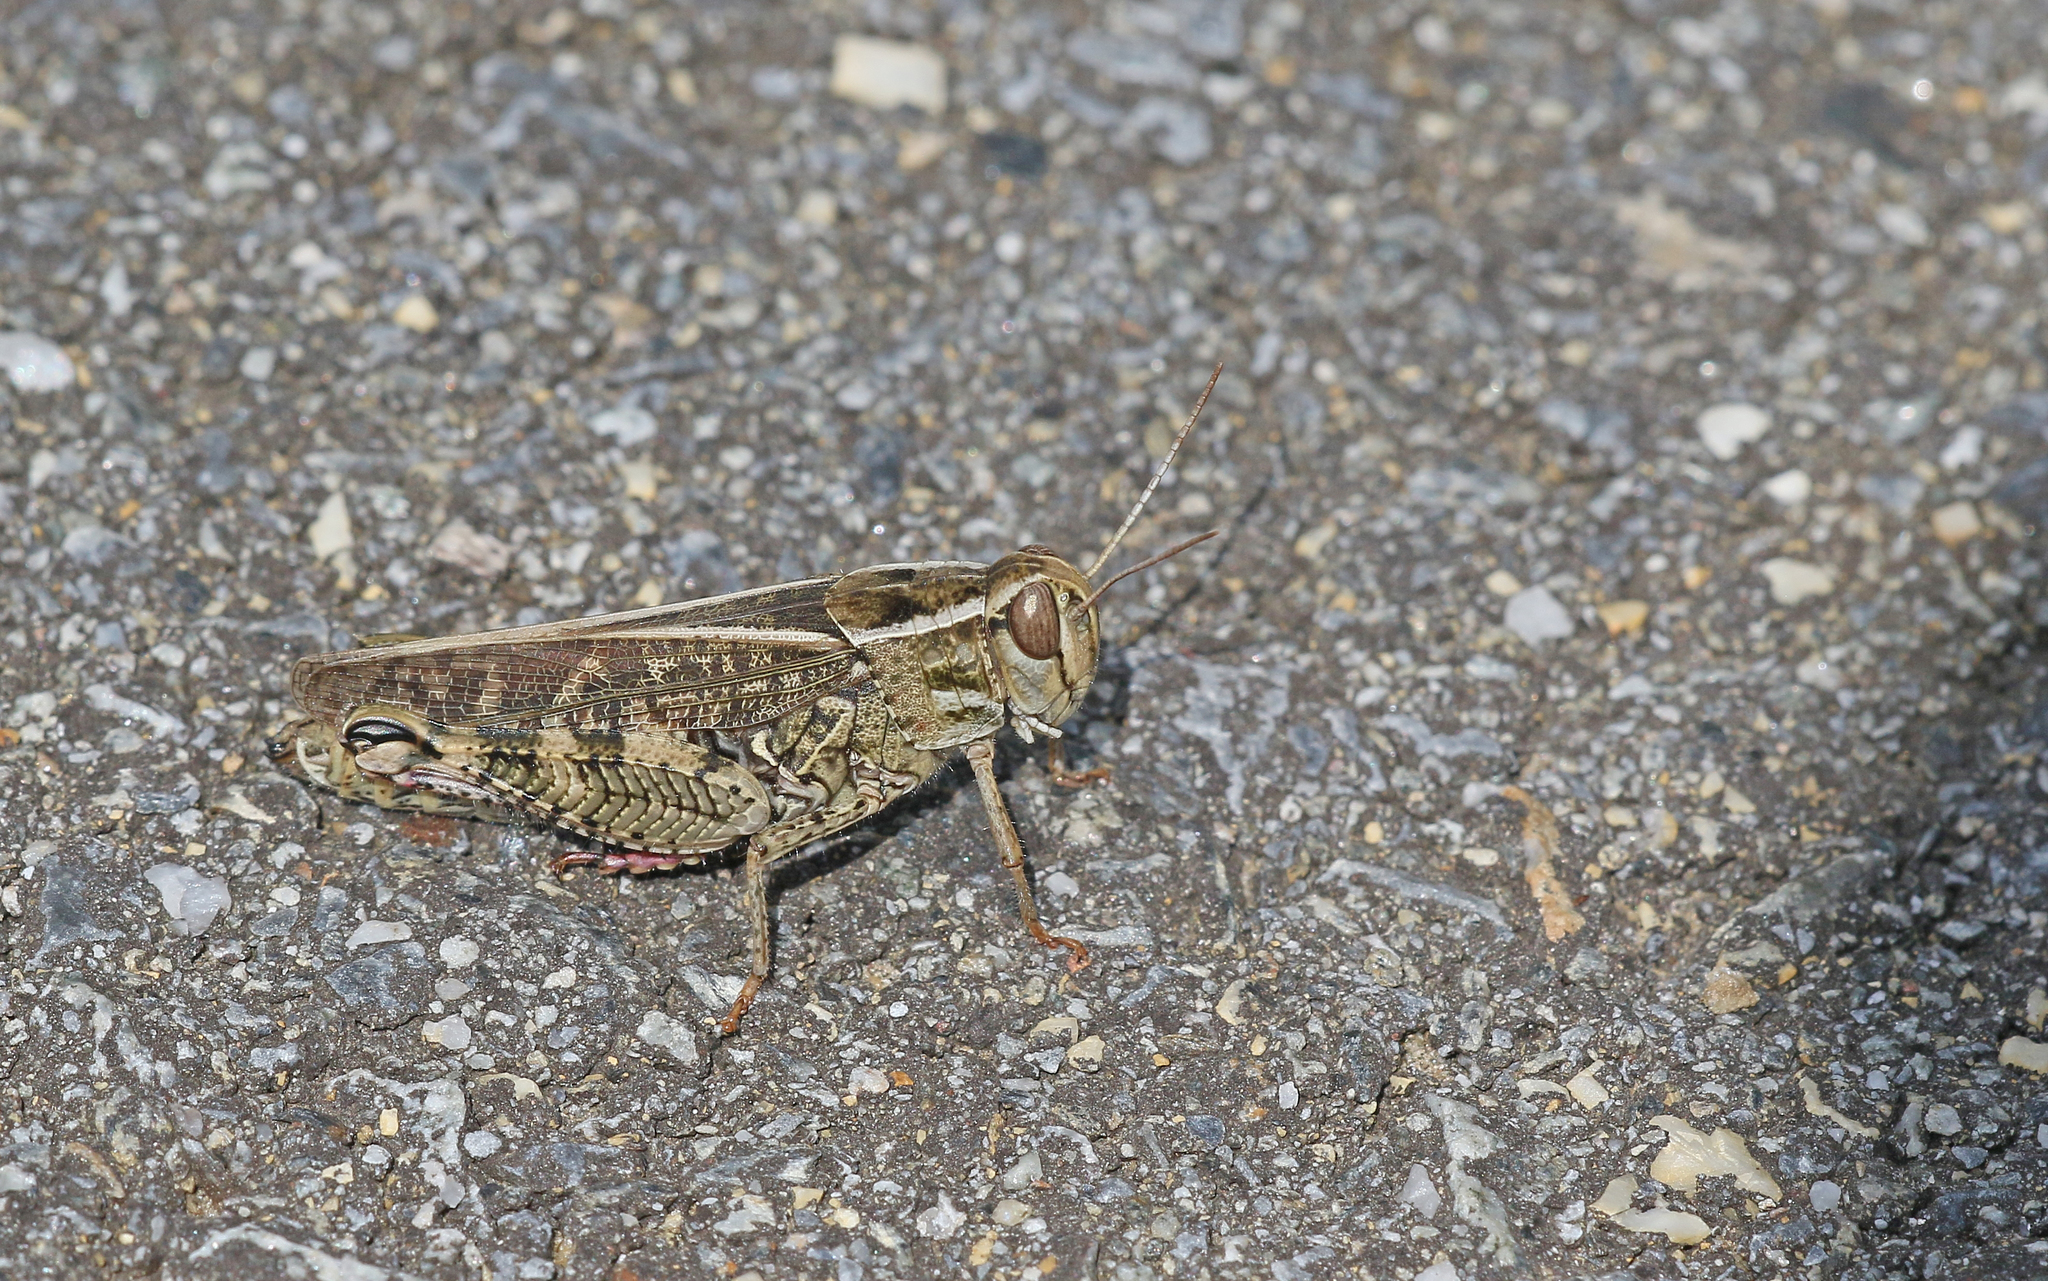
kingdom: Animalia
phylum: Arthropoda
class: Insecta
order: Orthoptera
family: Acrididae
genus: Calliptamus
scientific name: Calliptamus italicus
